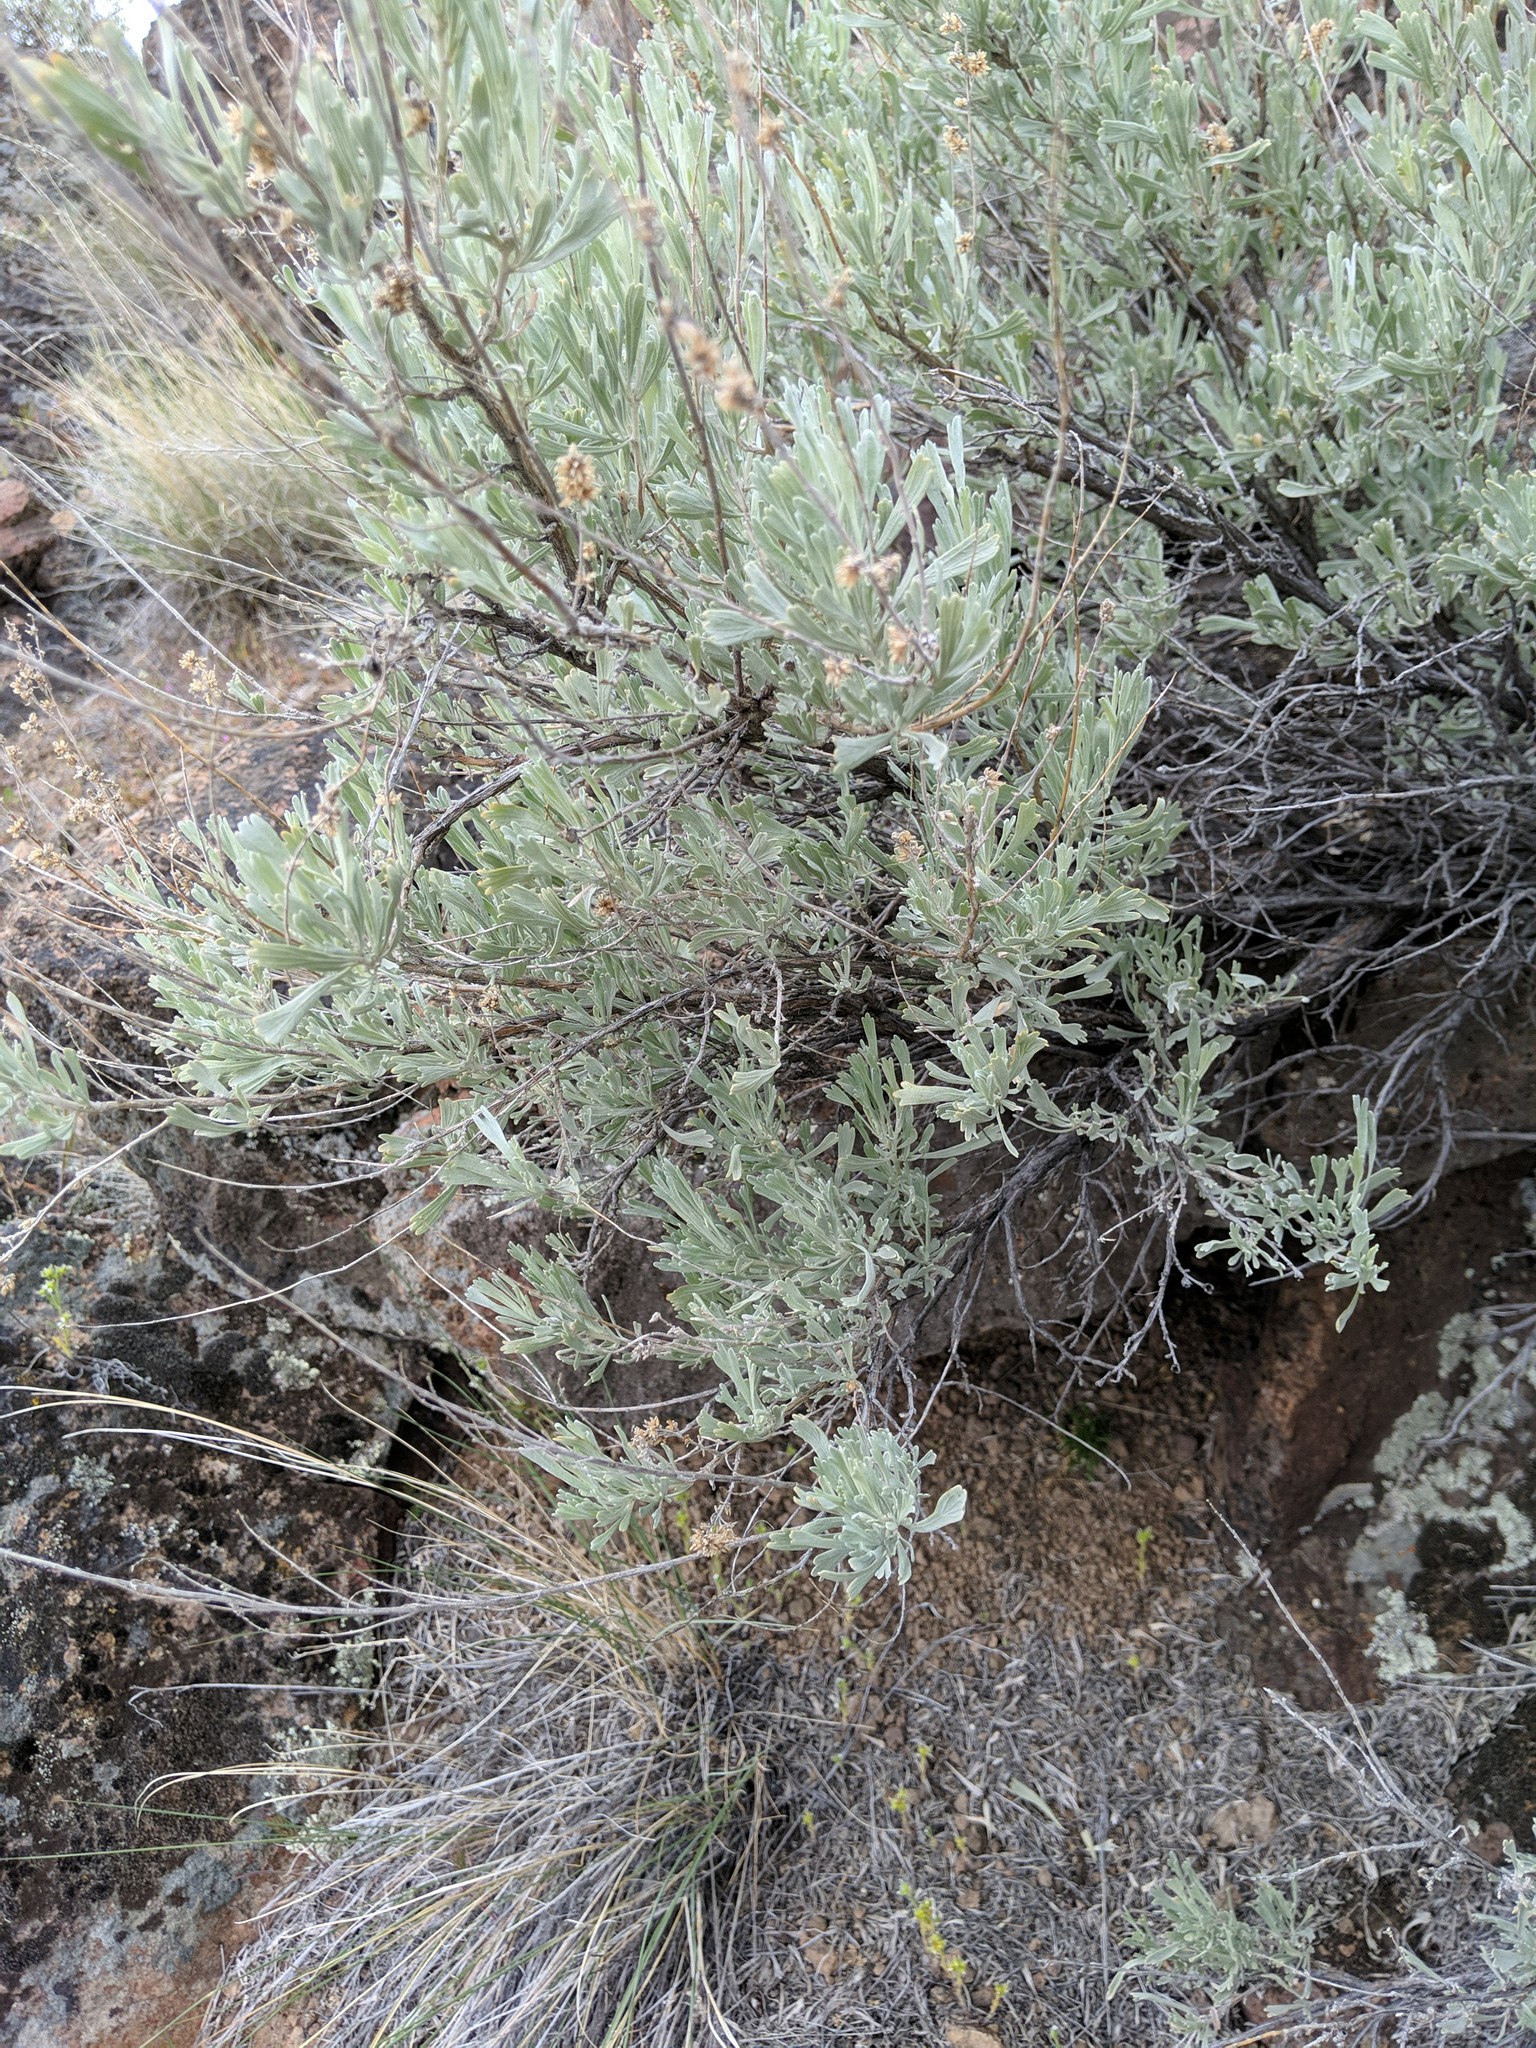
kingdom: Plantae
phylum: Tracheophyta
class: Magnoliopsida
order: Asterales
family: Asteraceae
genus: Artemisia
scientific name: Artemisia tridentata
